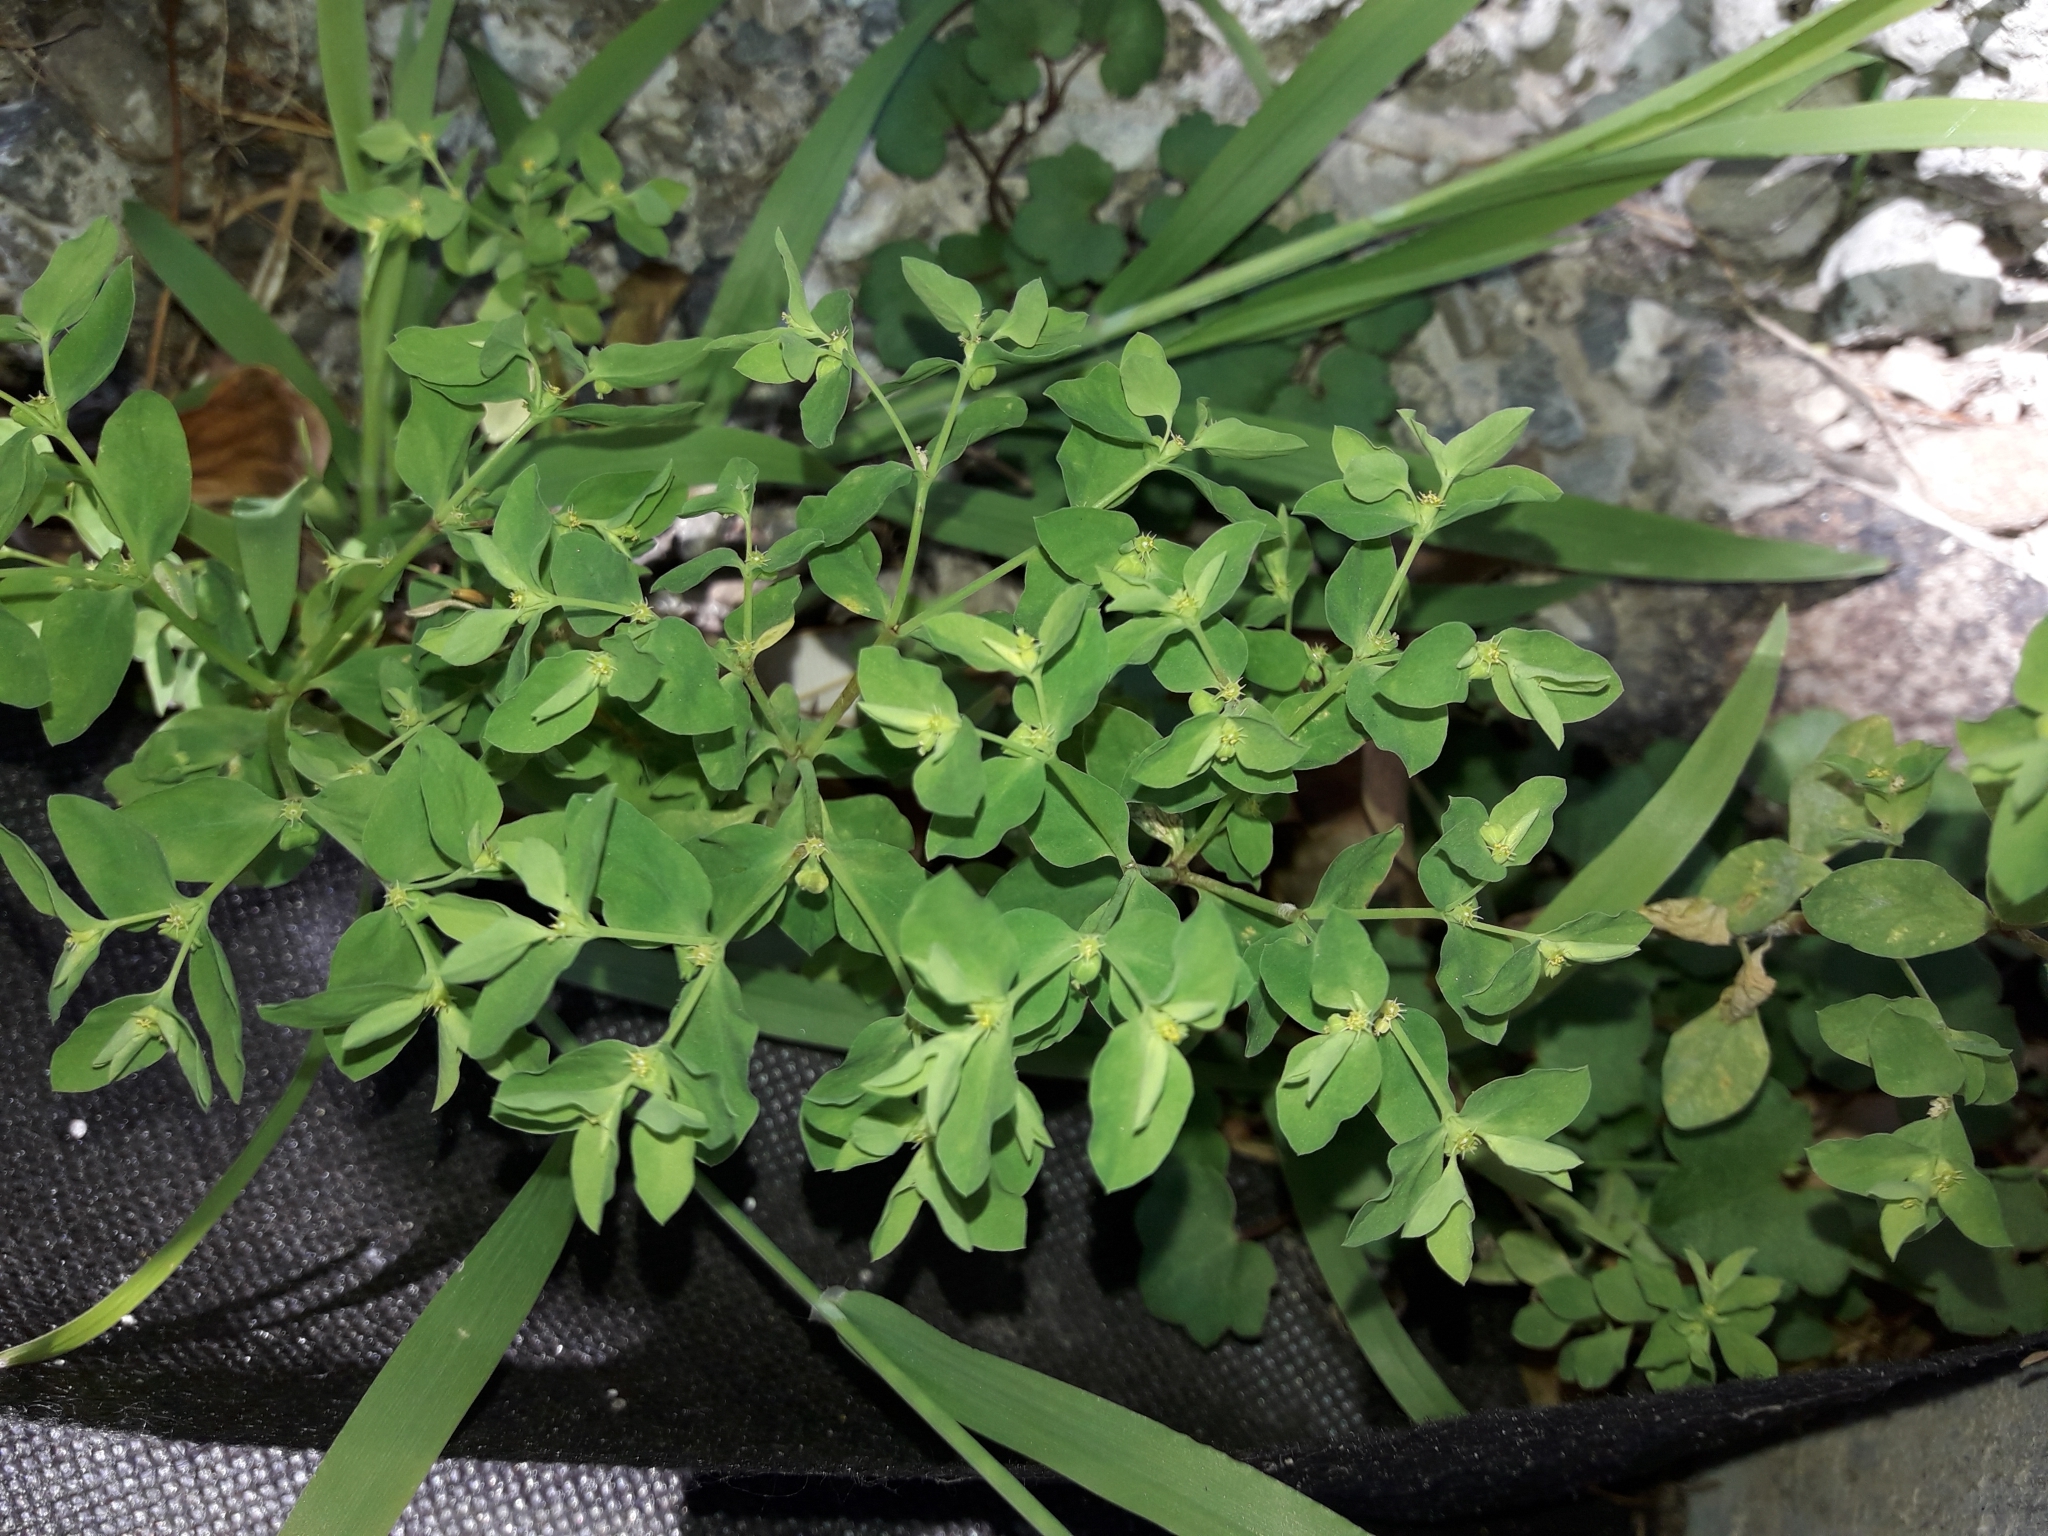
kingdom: Plantae
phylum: Tracheophyta
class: Magnoliopsida
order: Malpighiales
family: Euphorbiaceae
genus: Euphorbia
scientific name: Euphorbia peplus
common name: Petty spurge
